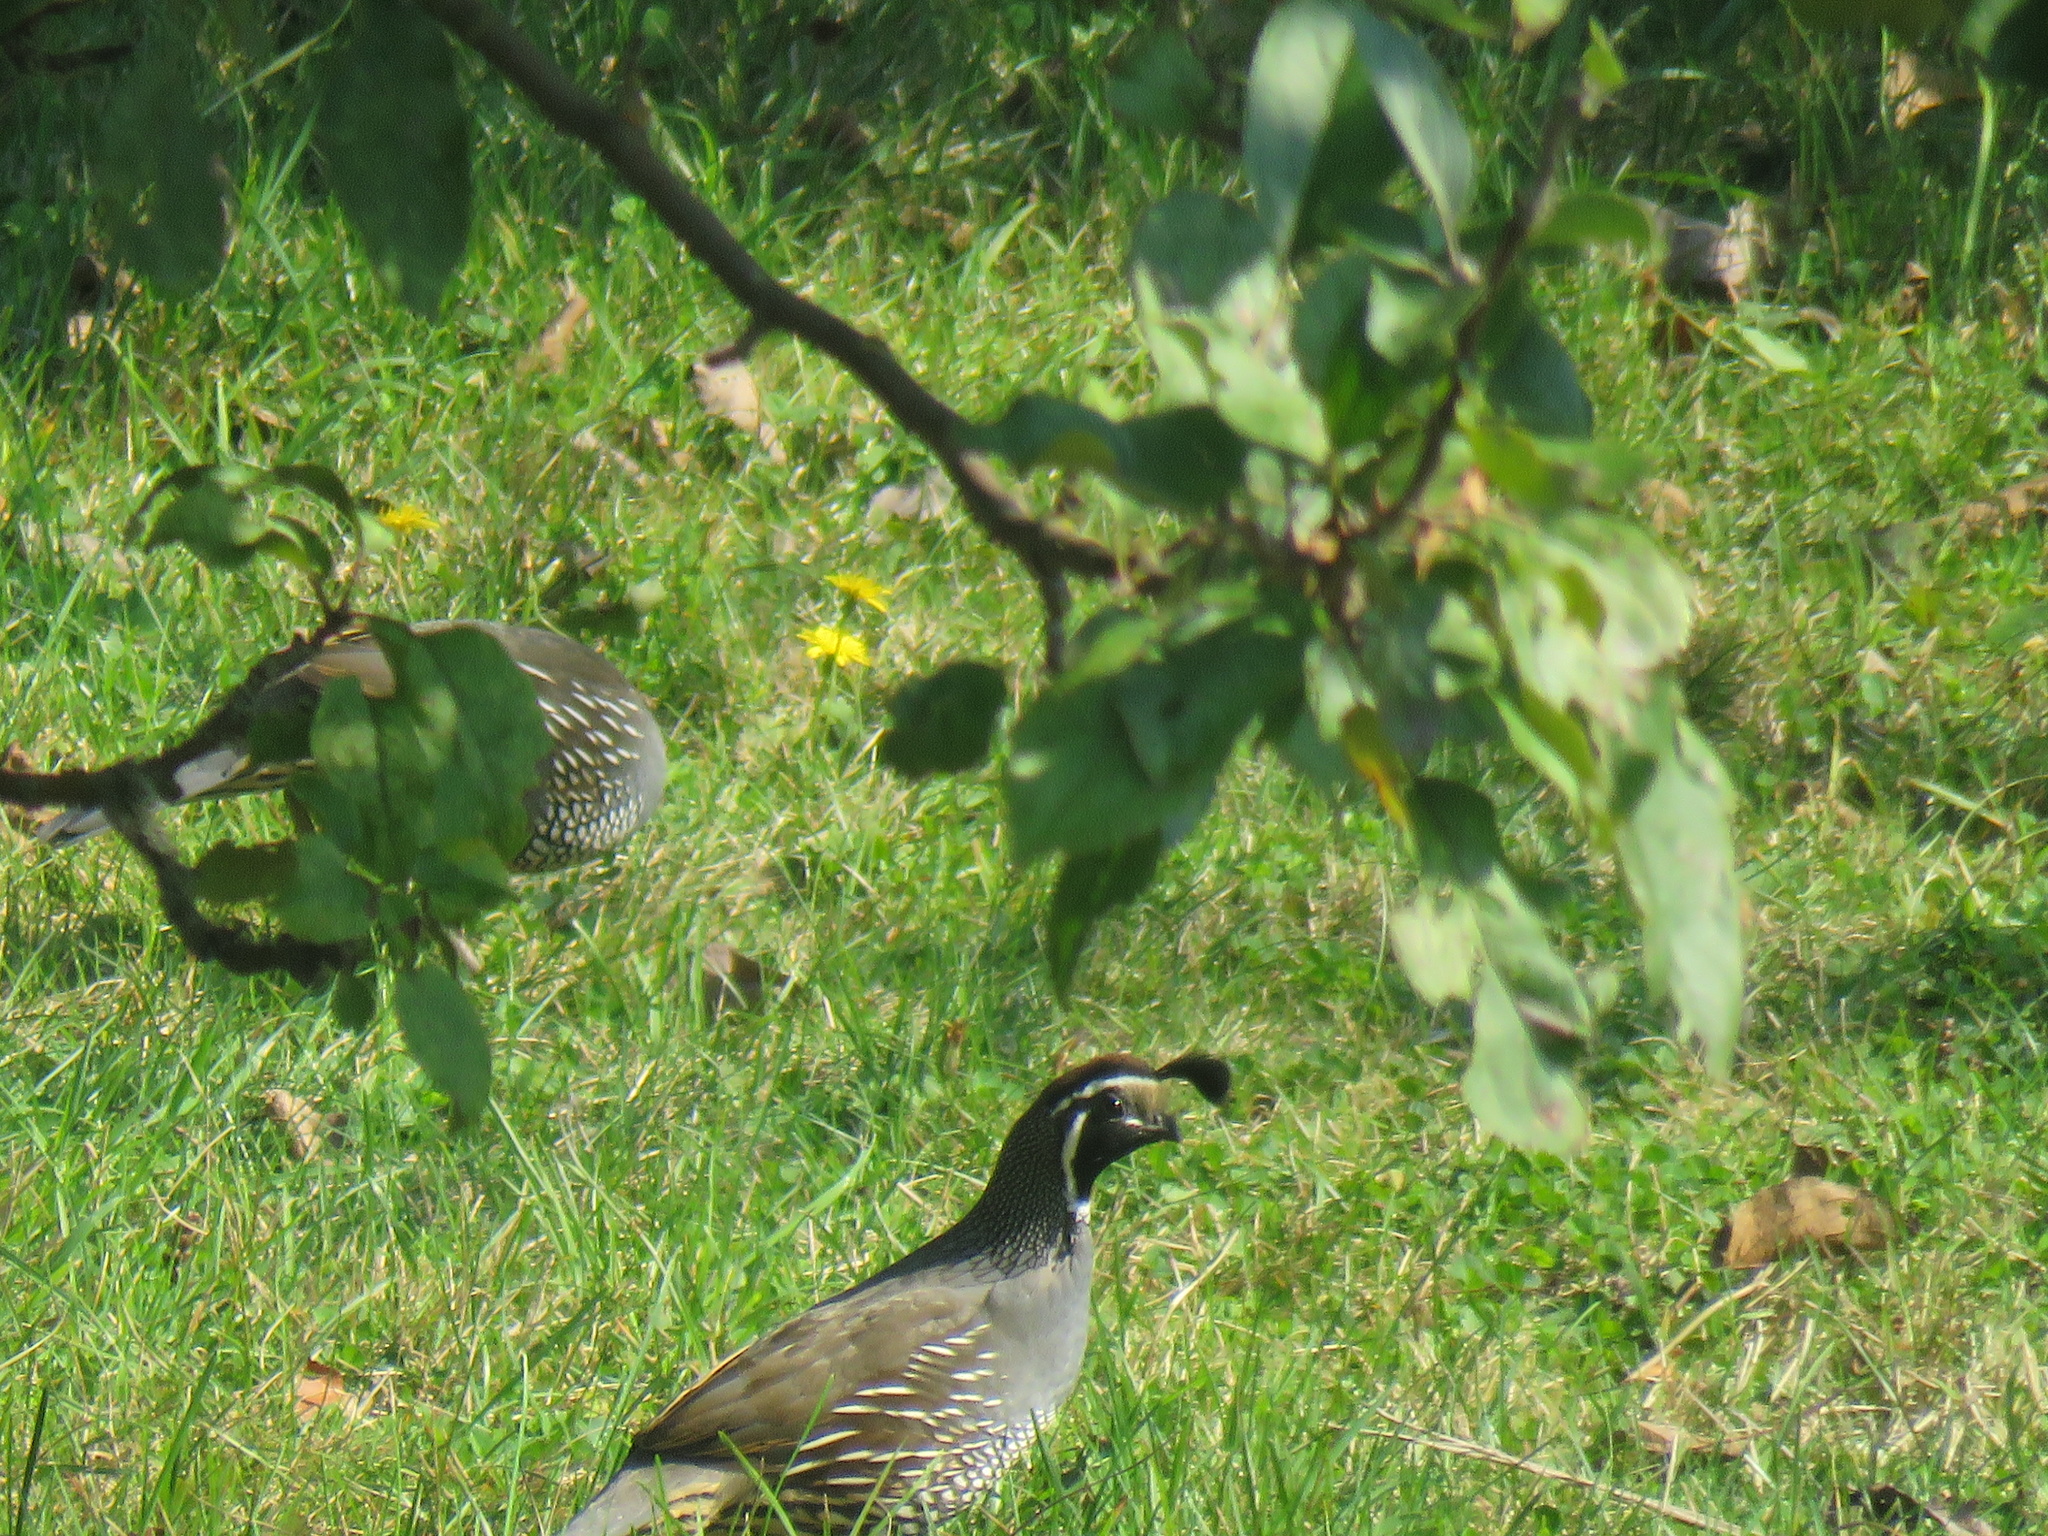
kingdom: Animalia
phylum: Chordata
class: Aves
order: Galliformes
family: Odontophoridae
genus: Callipepla
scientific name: Callipepla californica
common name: California quail
